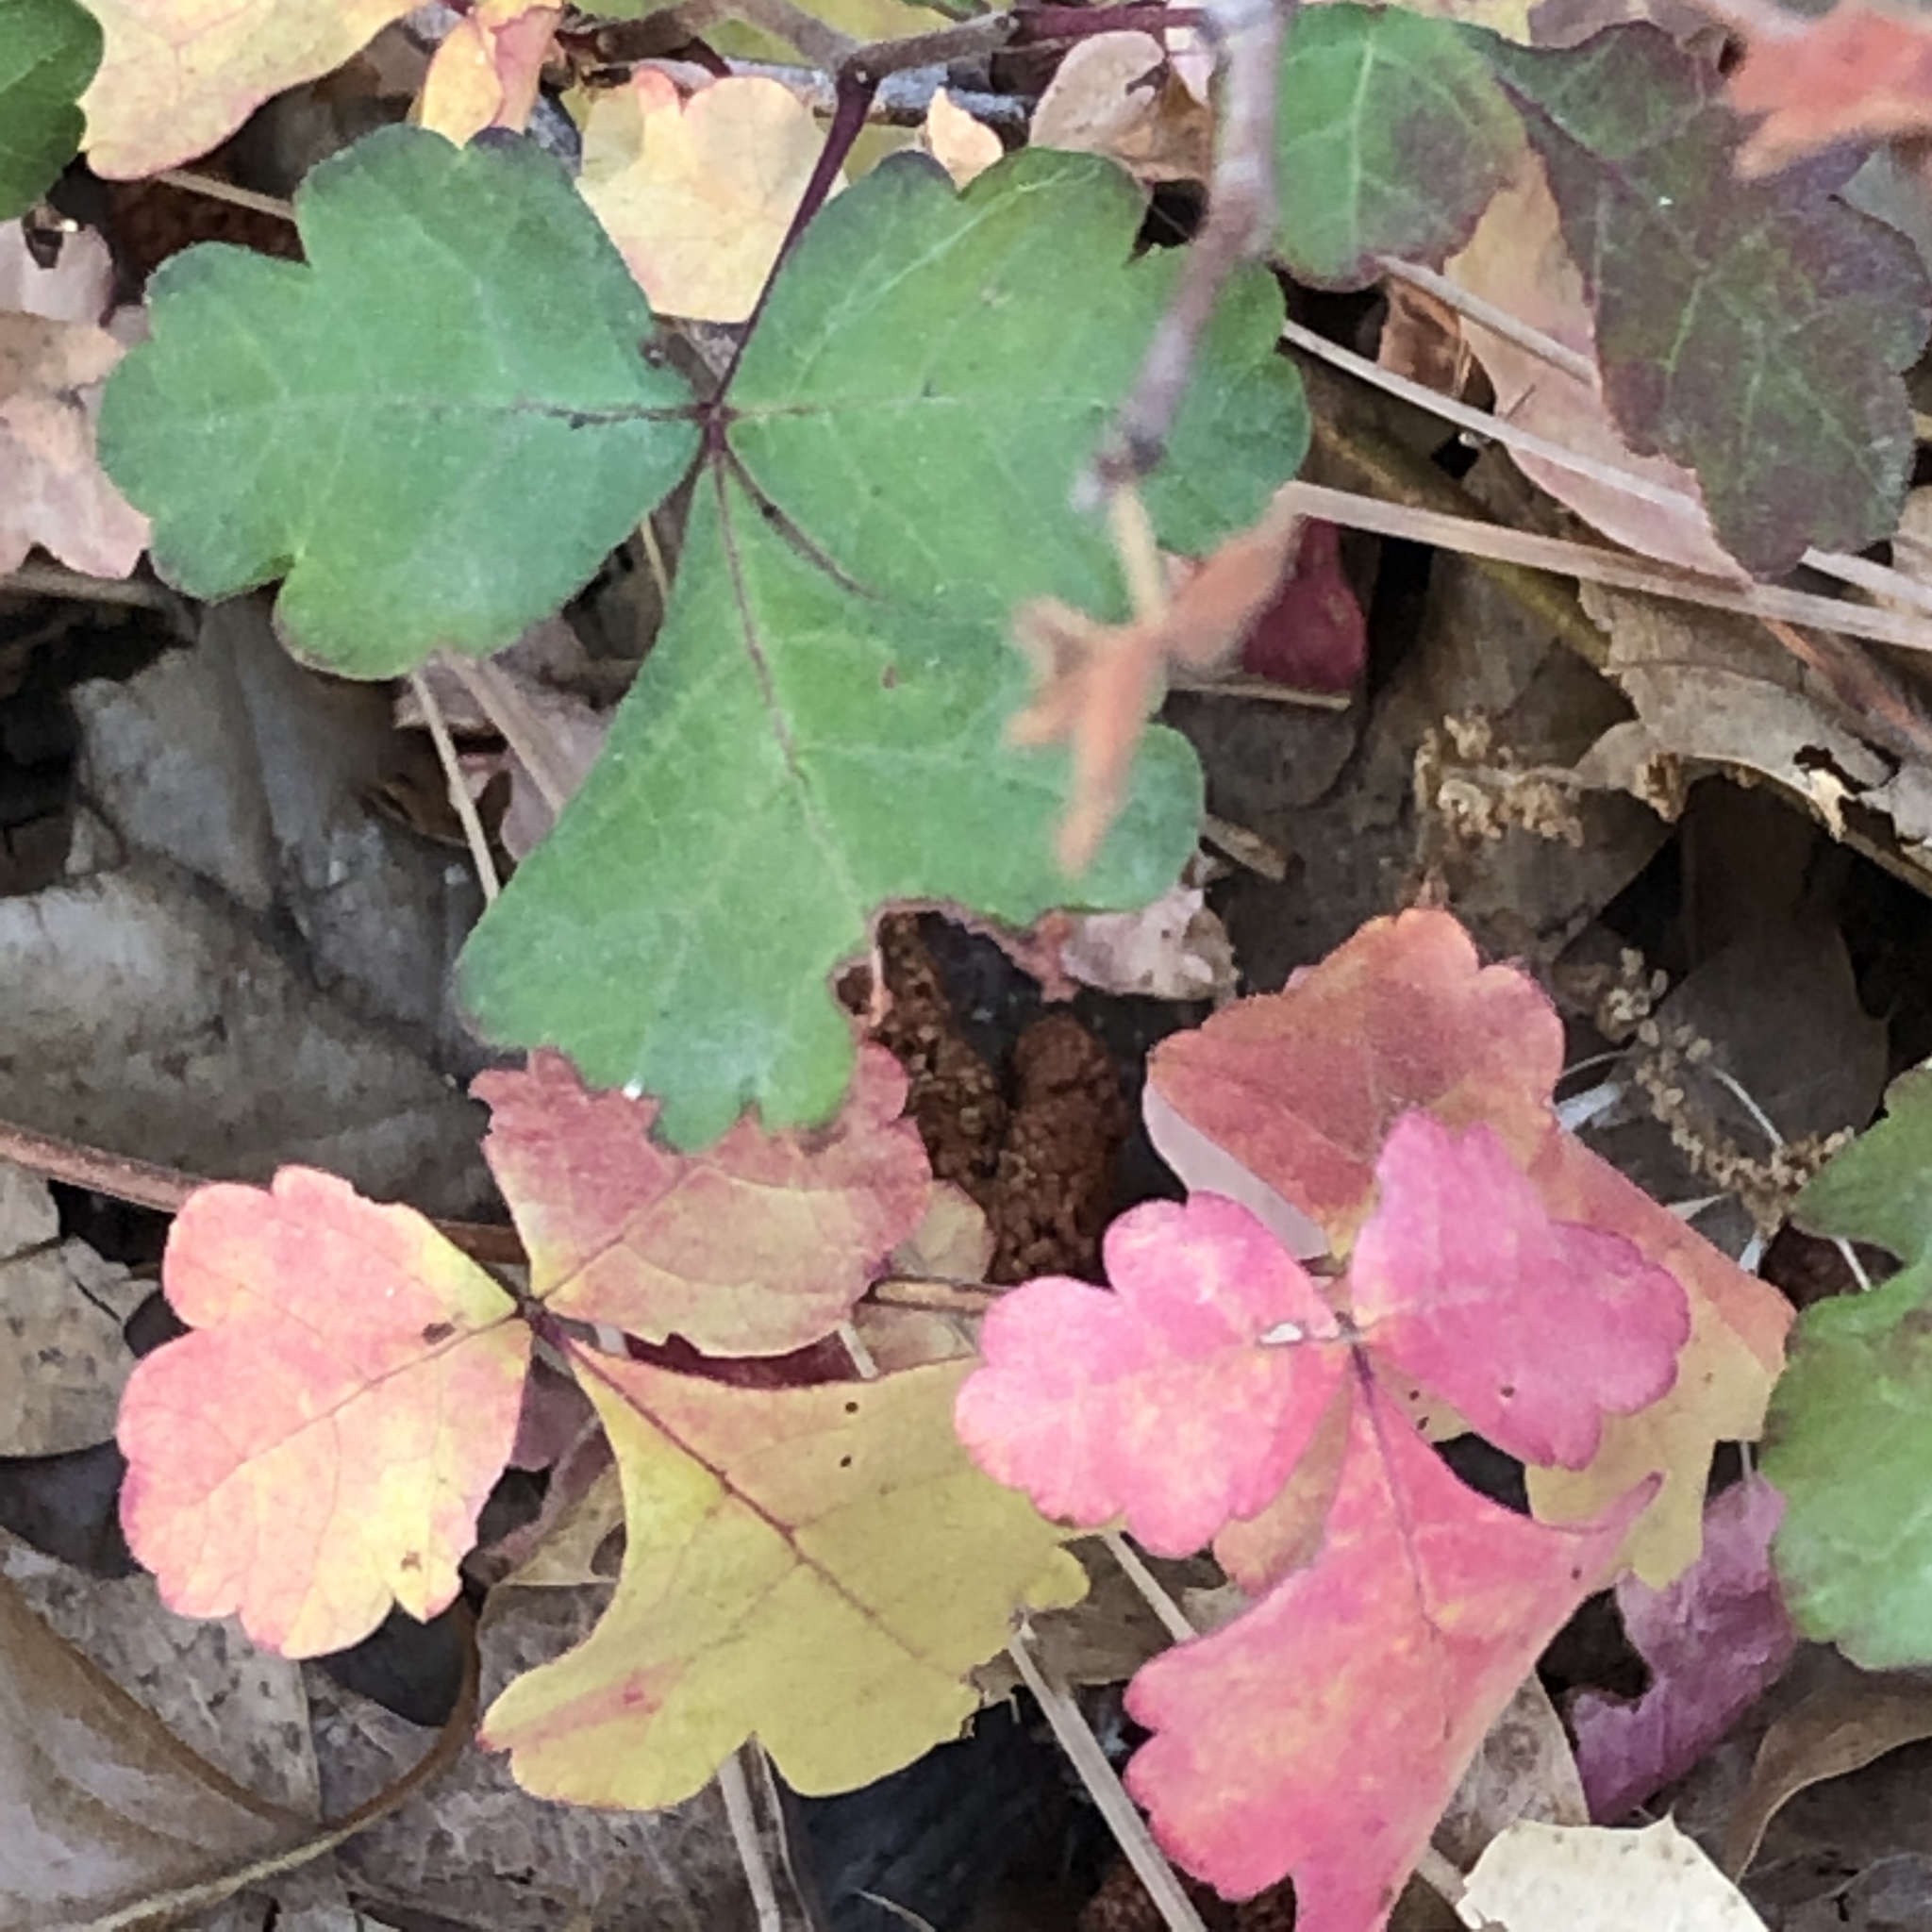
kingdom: Plantae
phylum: Tracheophyta
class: Magnoliopsida
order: Sapindales
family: Anacardiaceae
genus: Rhus
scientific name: Rhus aromatica
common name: Aromatic sumac
